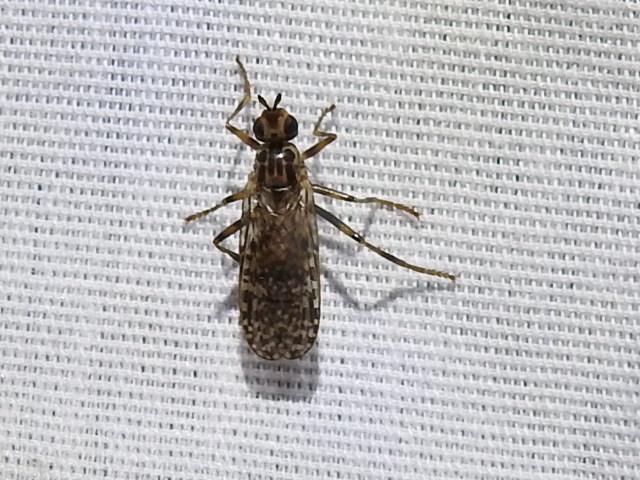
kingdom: Animalia
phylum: Arthropoda
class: Insecta
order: Diptera
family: Pyrgotidae
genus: Boreothrinax
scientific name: Boreothrinax
